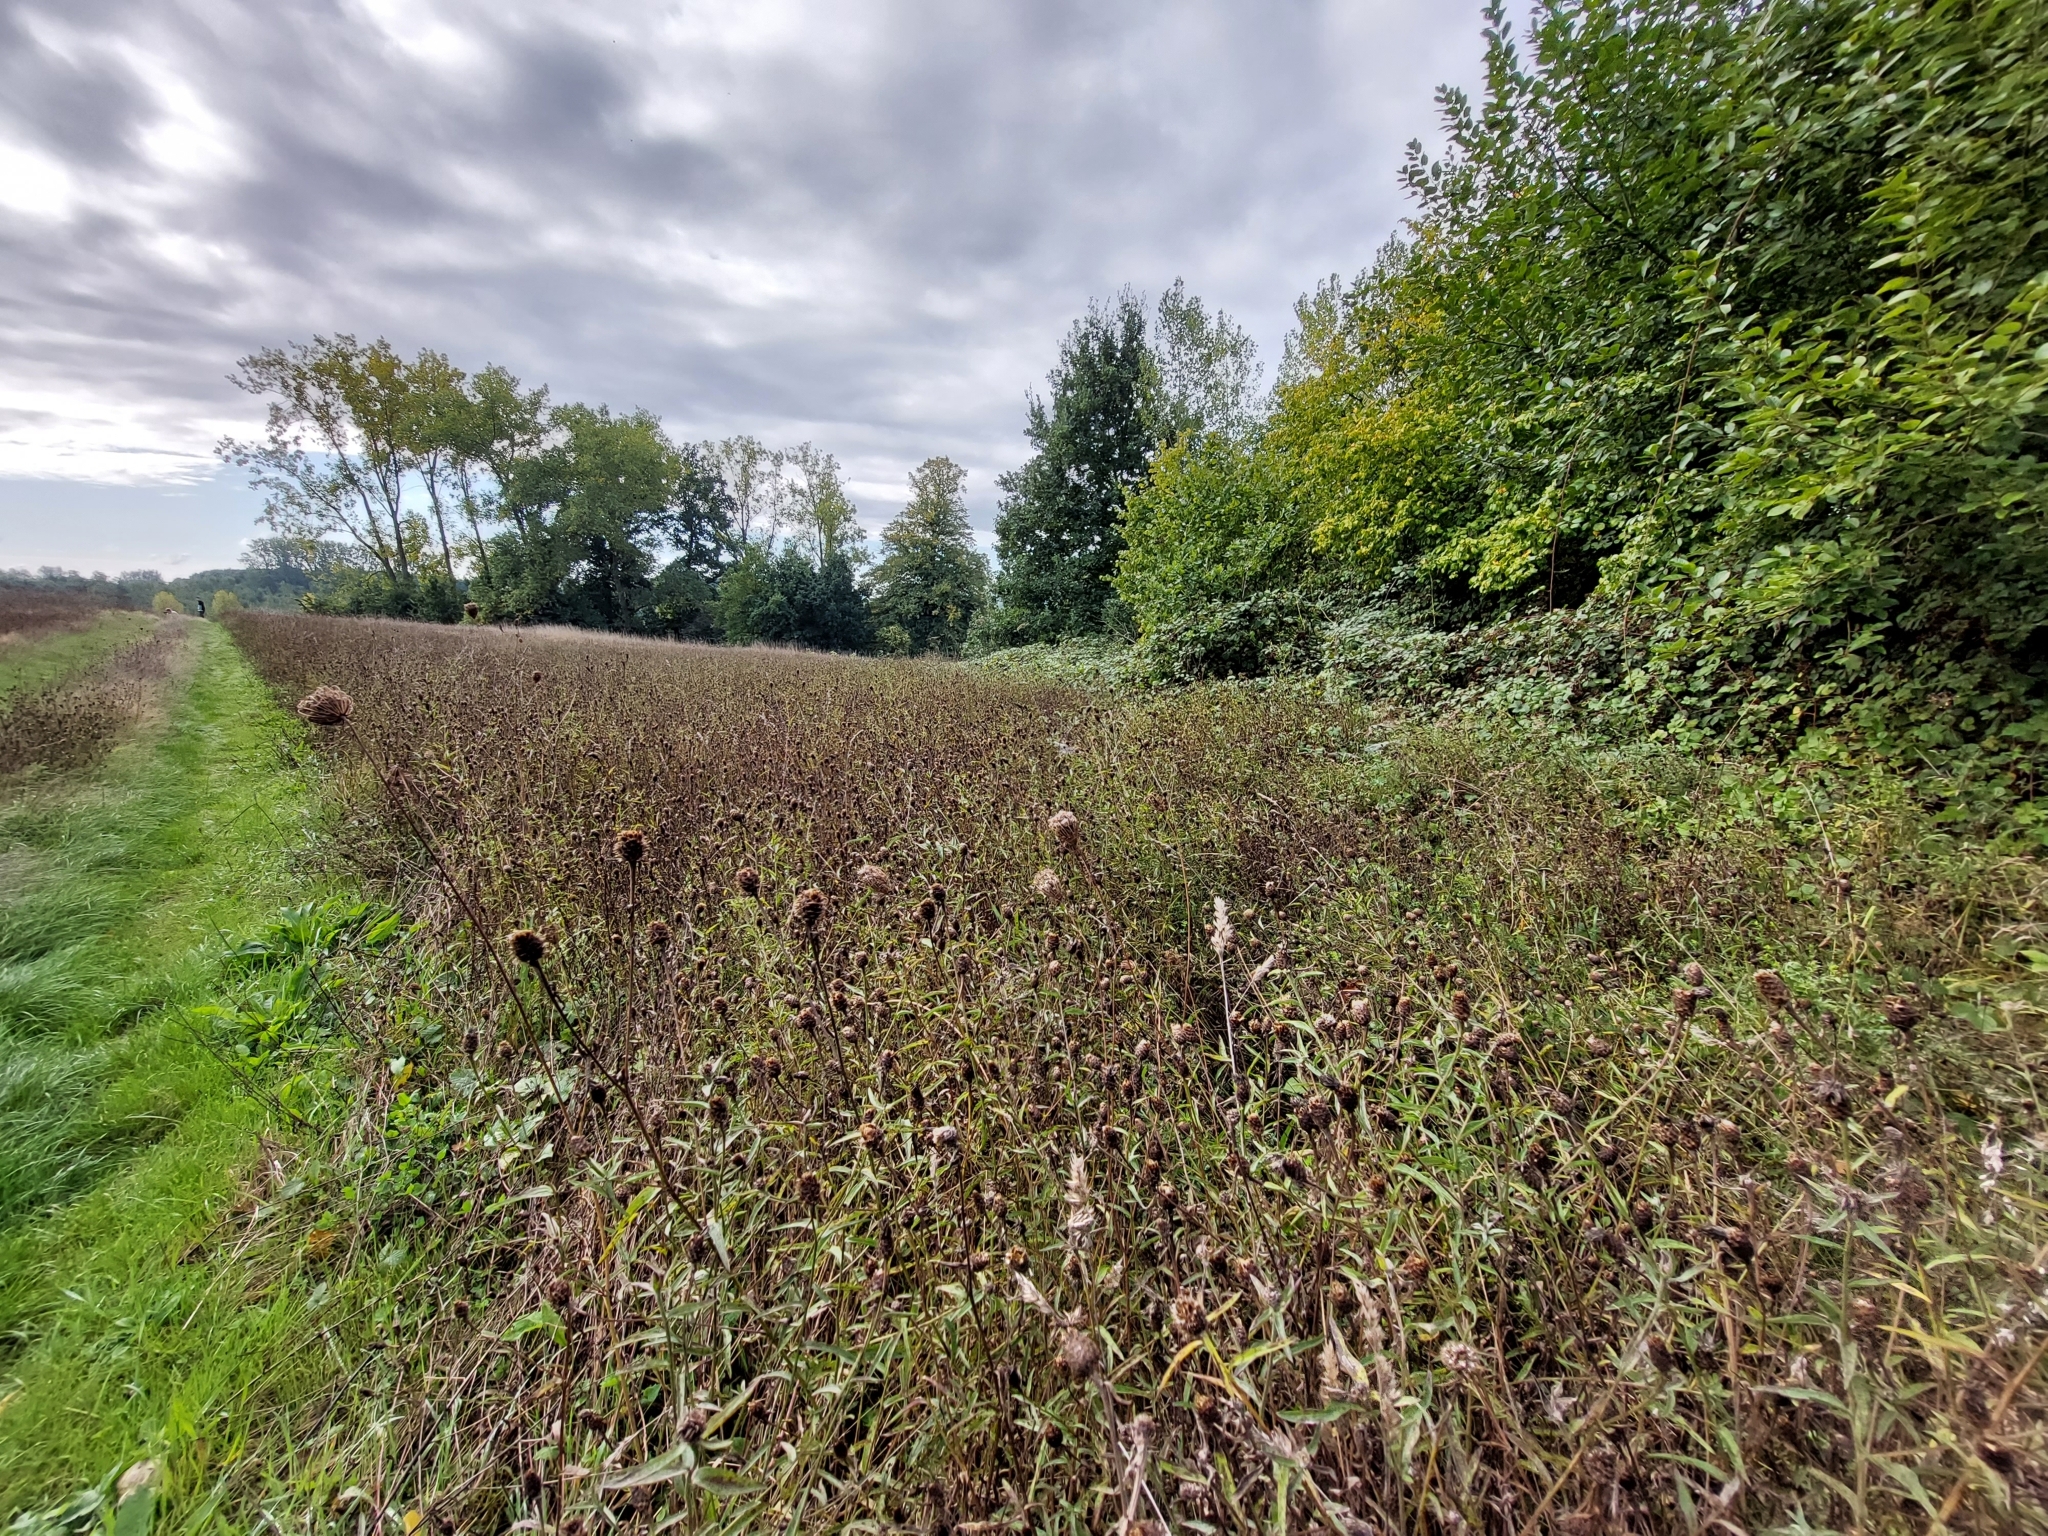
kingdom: Plantae
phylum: Tracheophyta
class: Magnoliopsida
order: Asterales
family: Asteraceae
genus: Centaurea
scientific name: Centaurea jacea
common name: Brown knapweed
